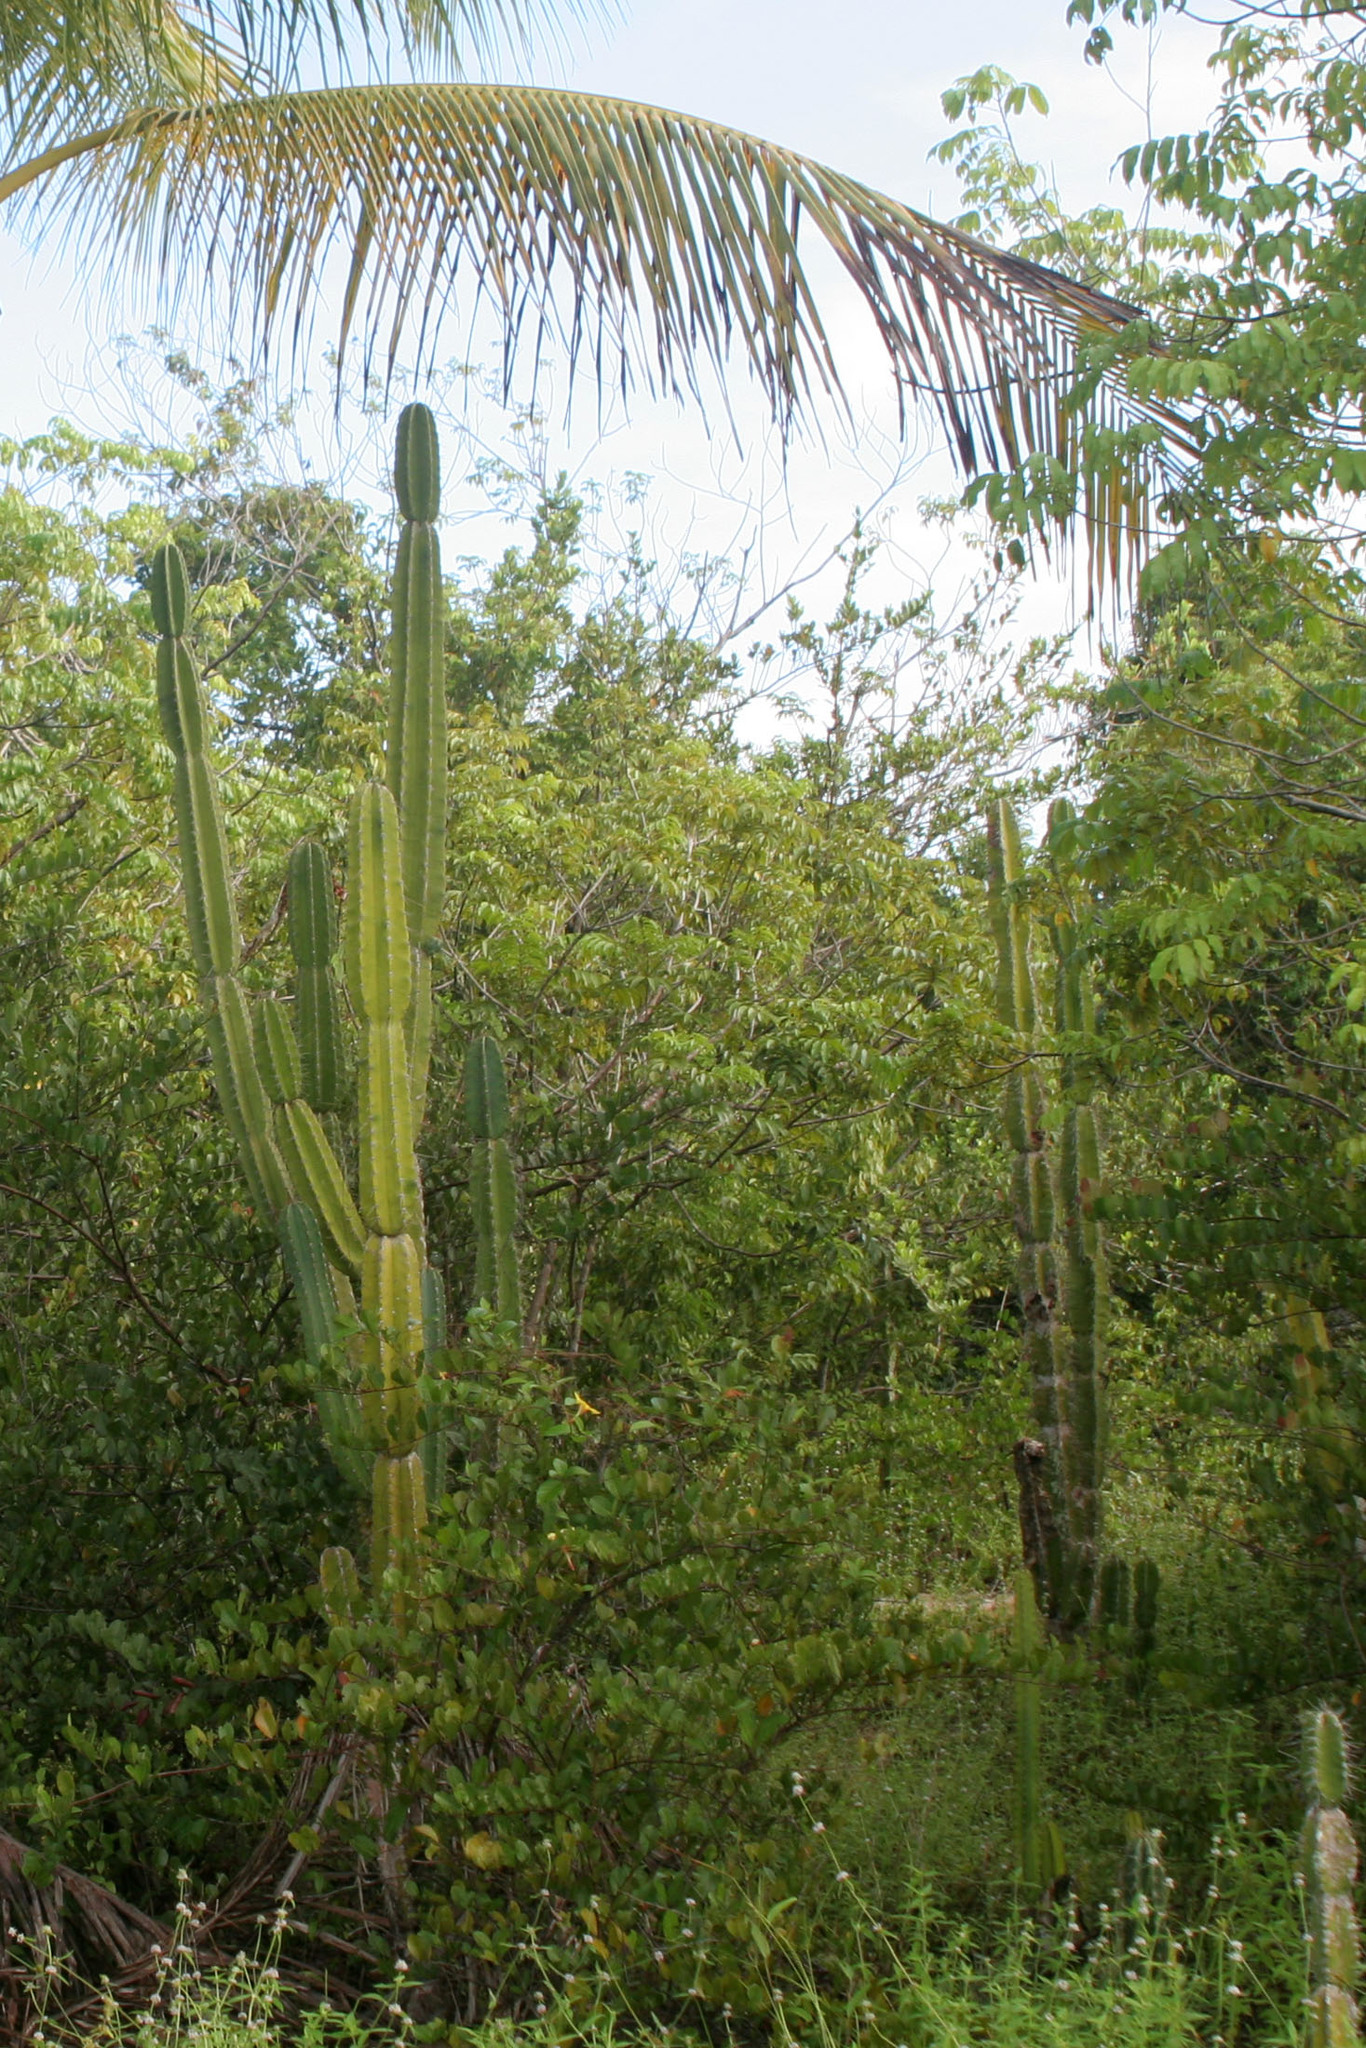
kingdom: Plantae
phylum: Tracheophyta
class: Magnoliopsida
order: Caryophyllales
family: Cactaceae
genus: Cereus
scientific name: Cereus hexagonus
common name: Lady of the night cactus
